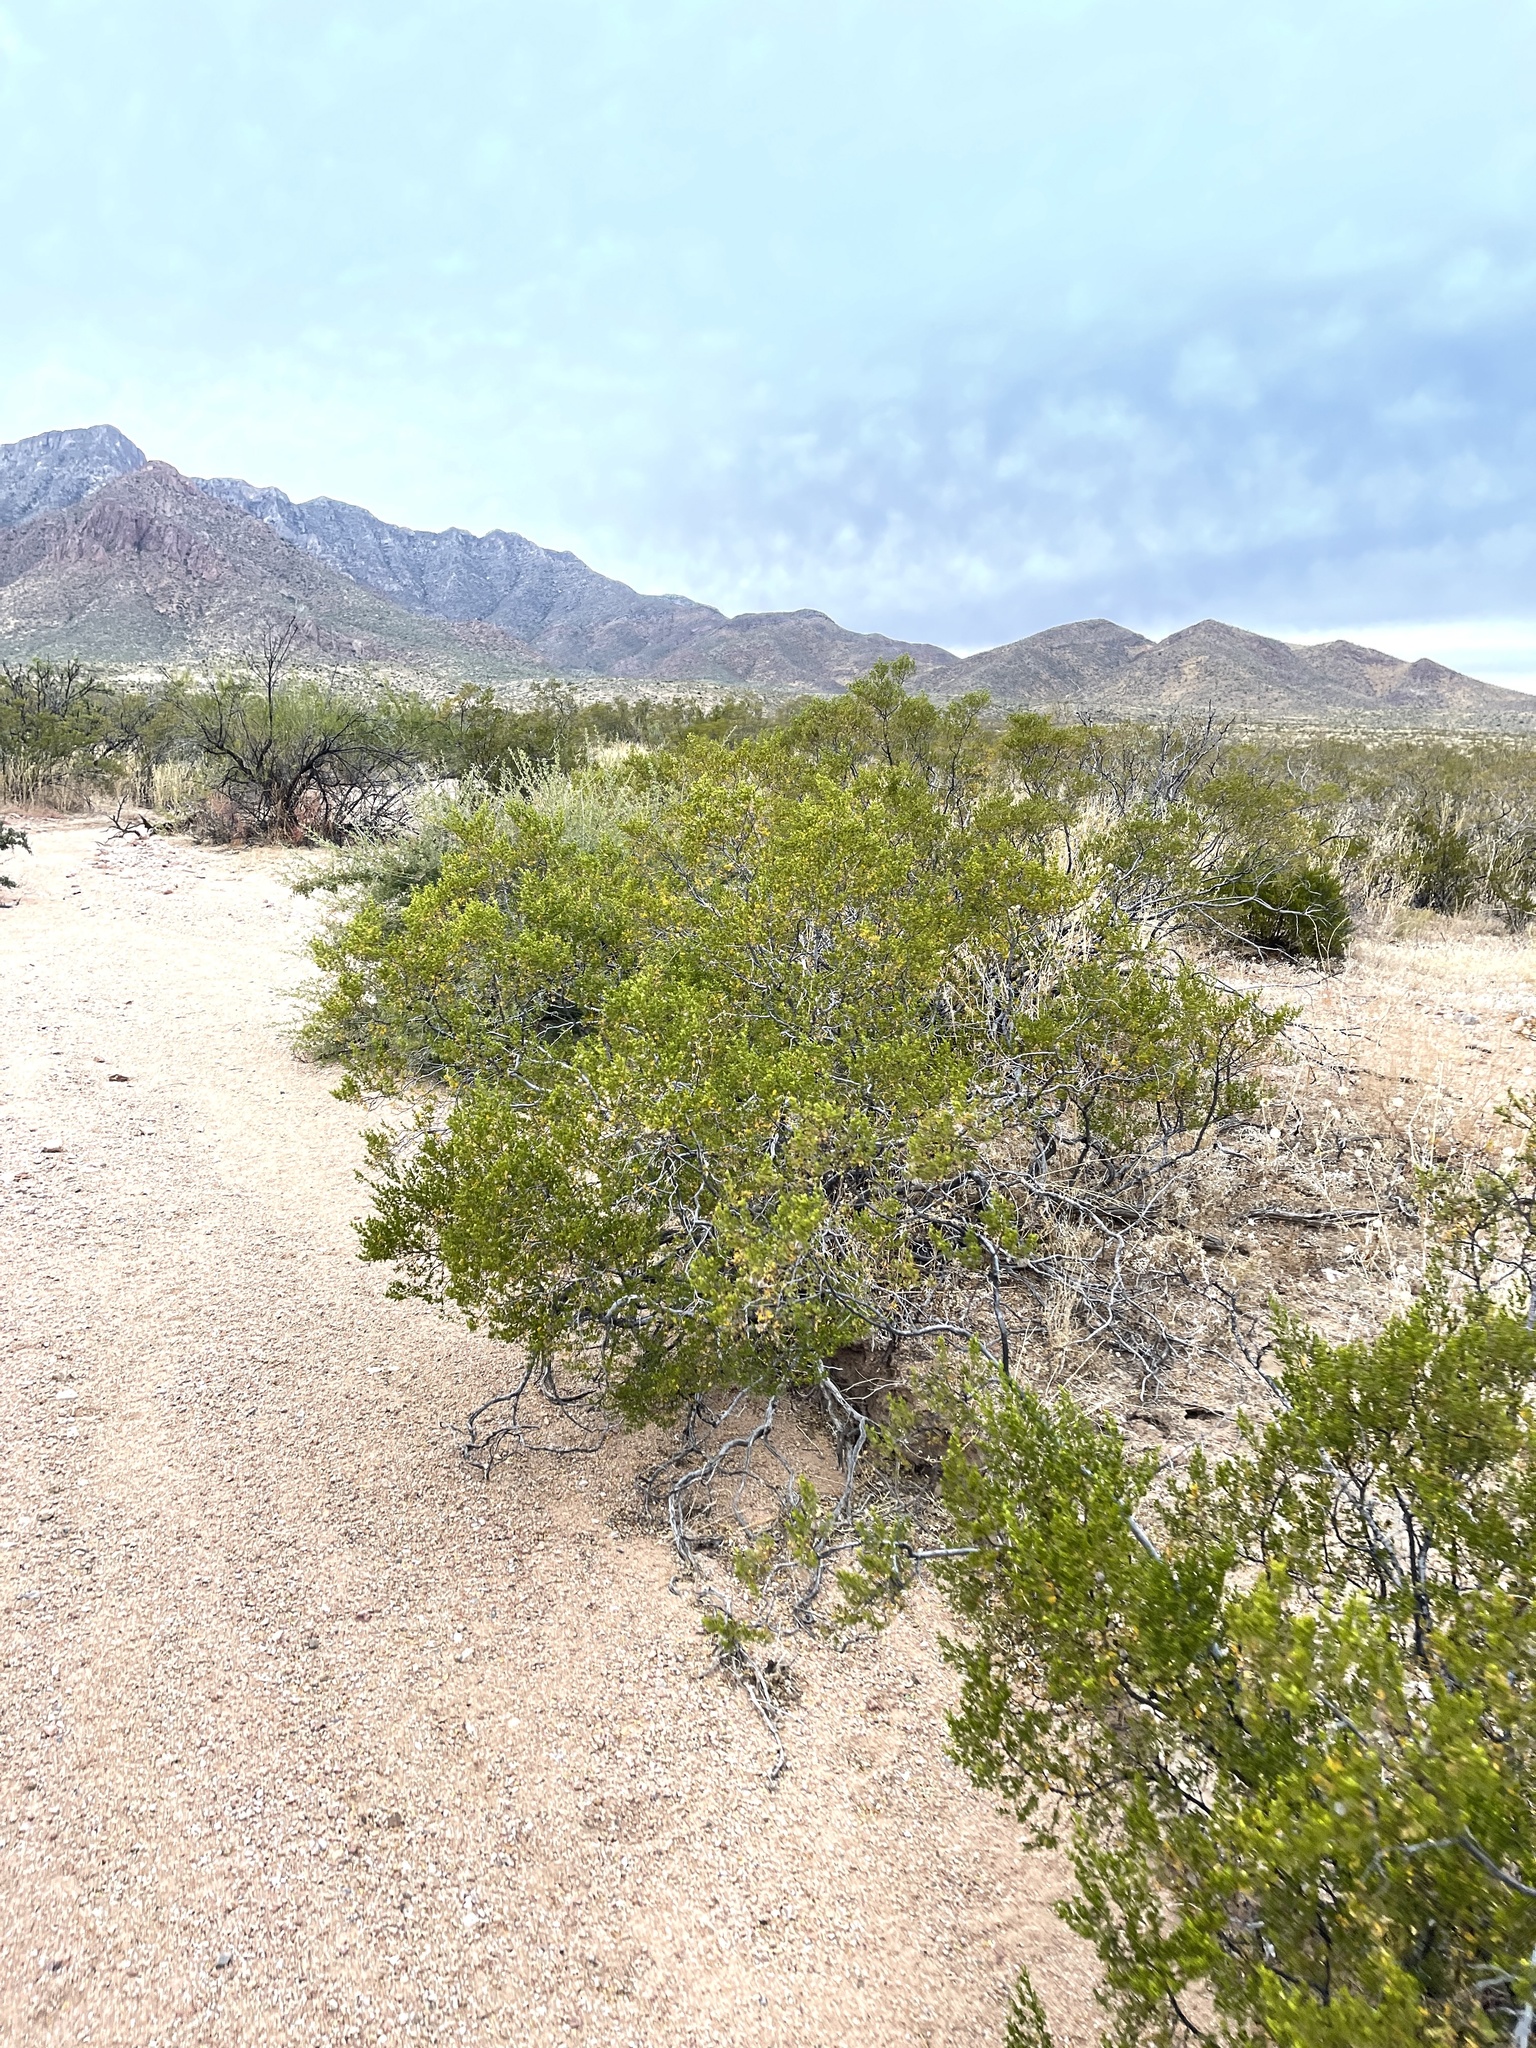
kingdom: Plantae
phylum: Tracheophyta
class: Magnoliopsida
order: Zygophyllales
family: Zygophyllaceae
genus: Larrea
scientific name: Larrea tridentata
